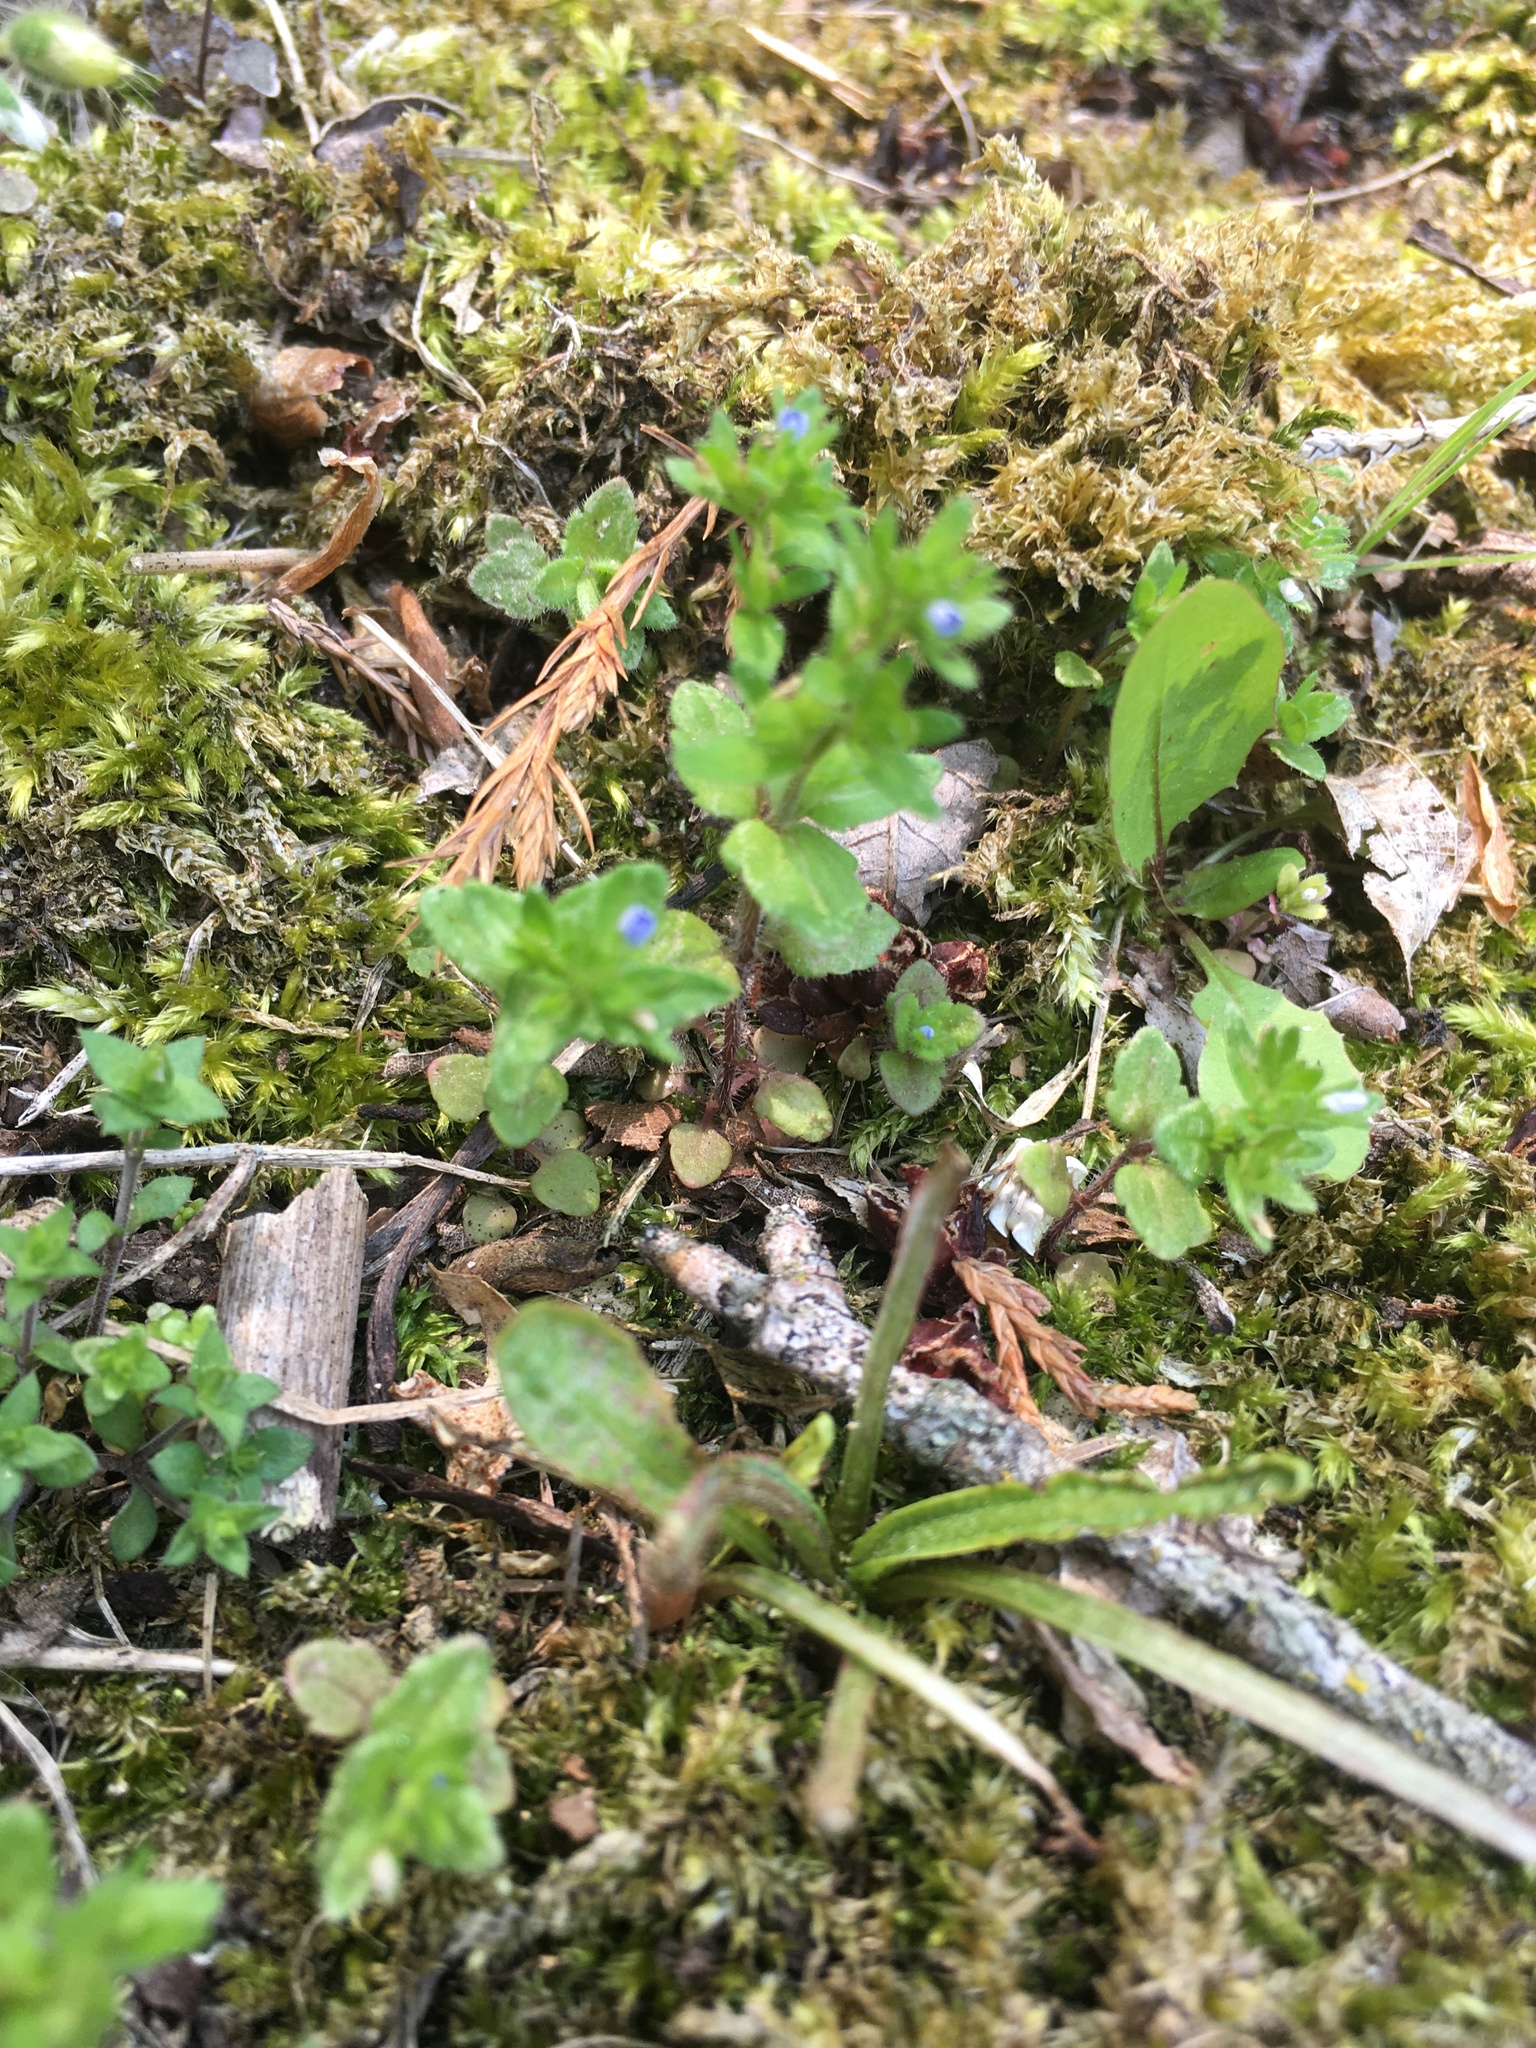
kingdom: Plantae
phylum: Tracheophyta
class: Magnoliopsida
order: Lamiales
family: Plantaginaceae
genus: Veronica
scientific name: Veronica arvensis
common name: Corn speedwell
